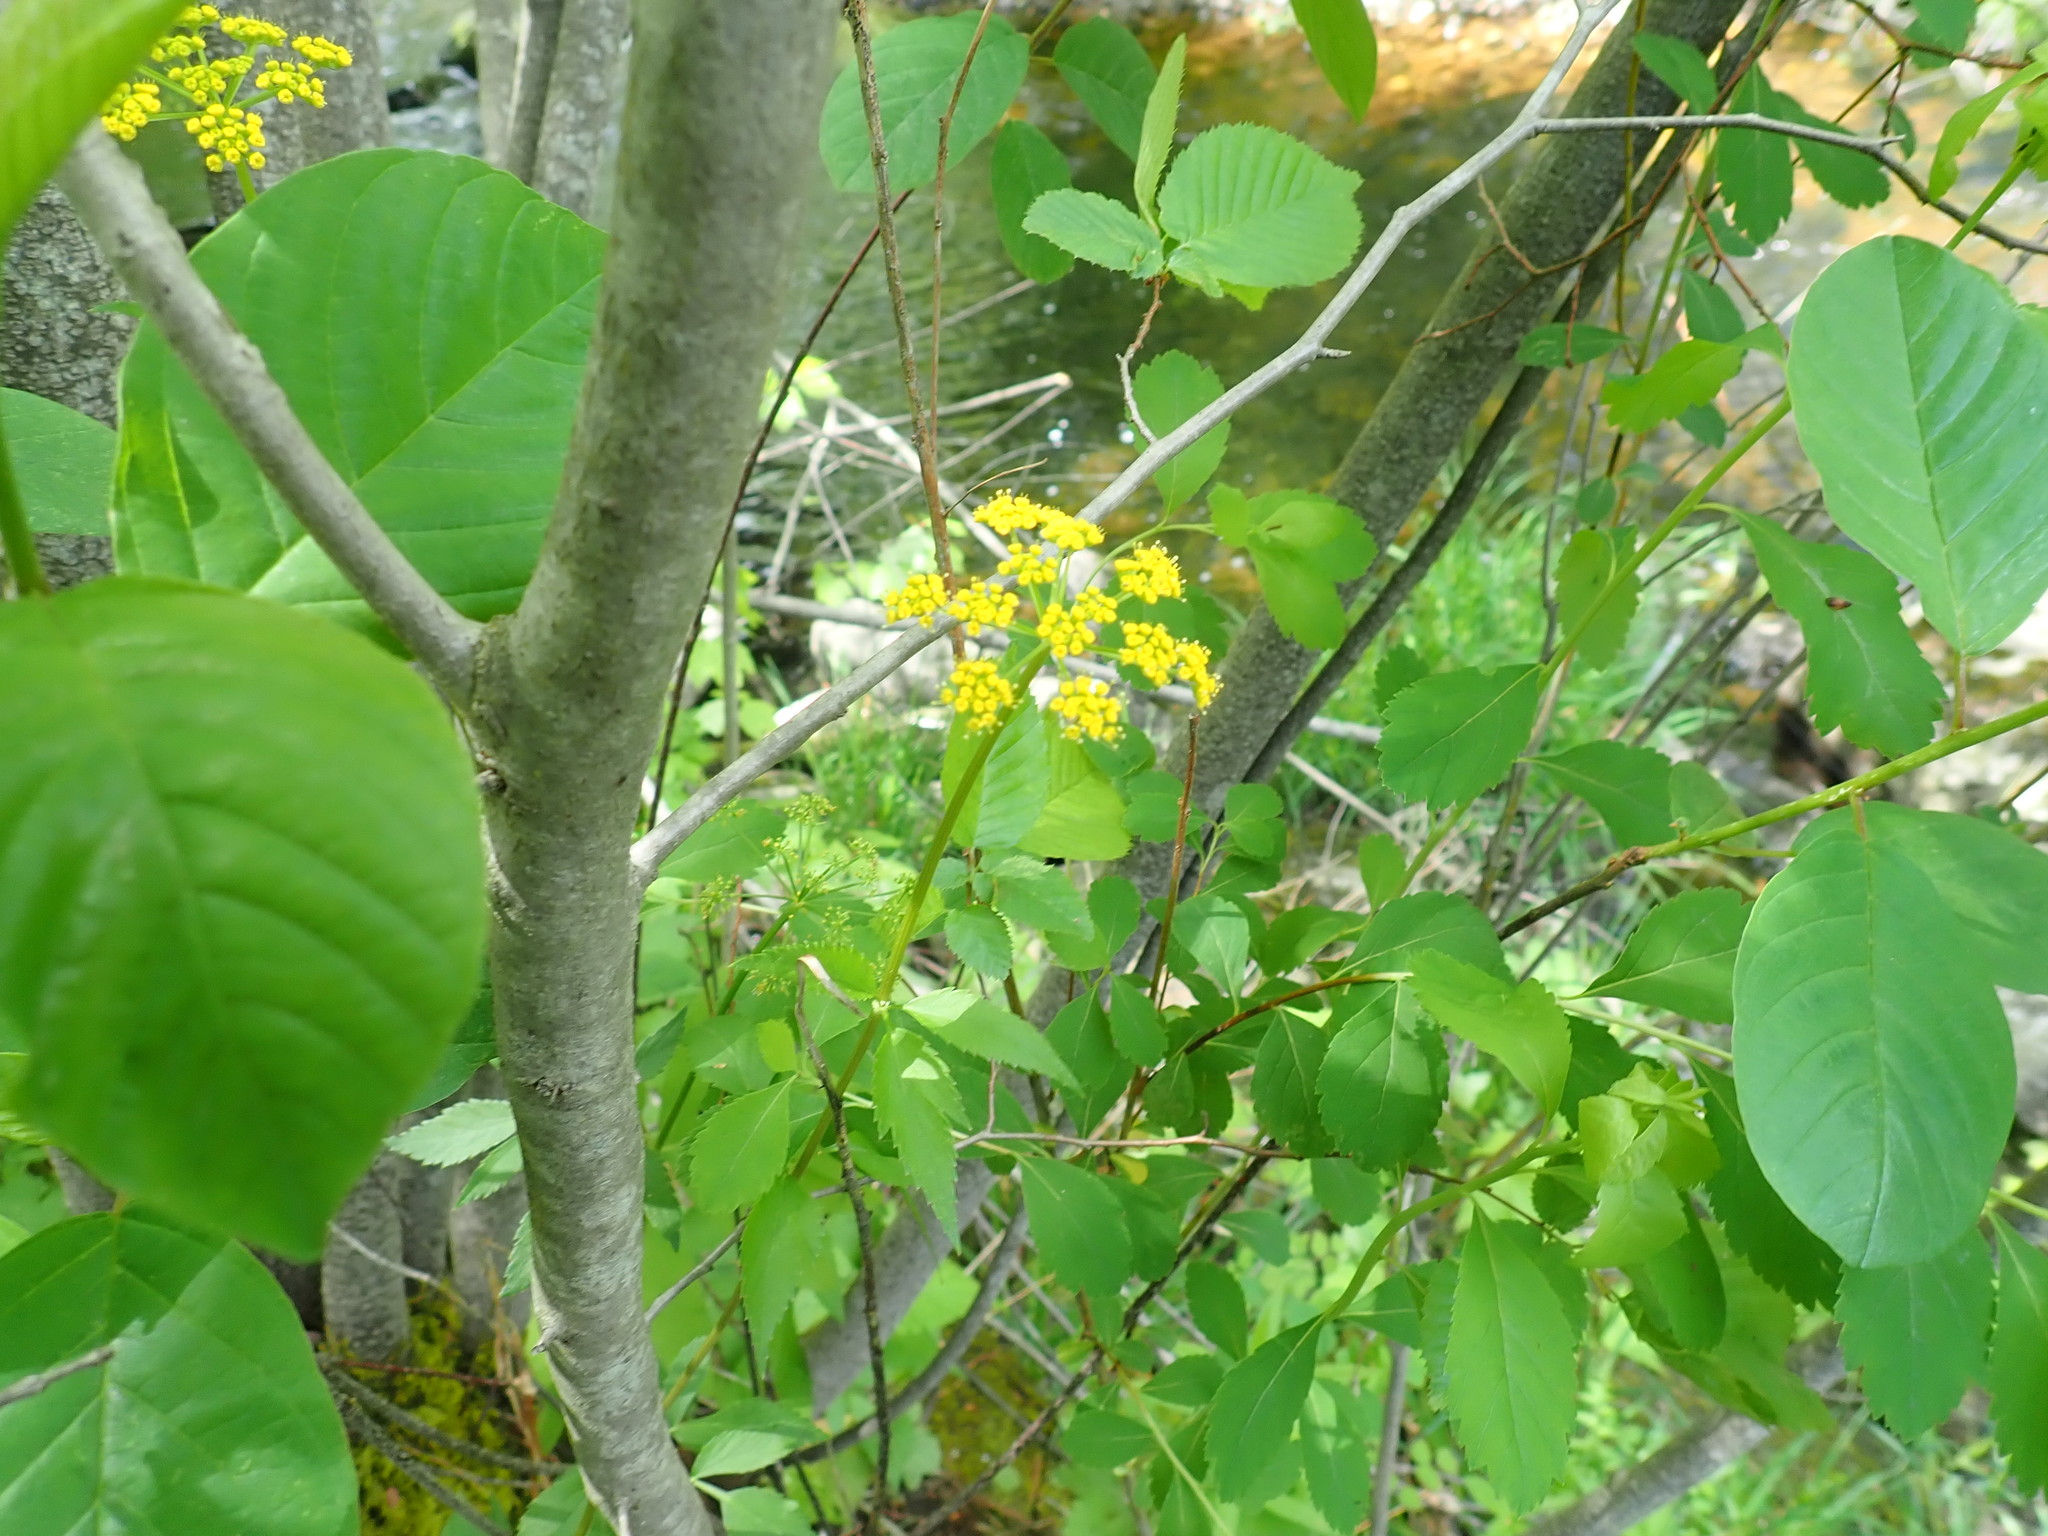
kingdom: Plantae
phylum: Tracheophyta
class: Magnoliopsida
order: Apiales
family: Apiaceae
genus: Zizia
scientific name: Zizia aurea
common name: Golden alexanders
